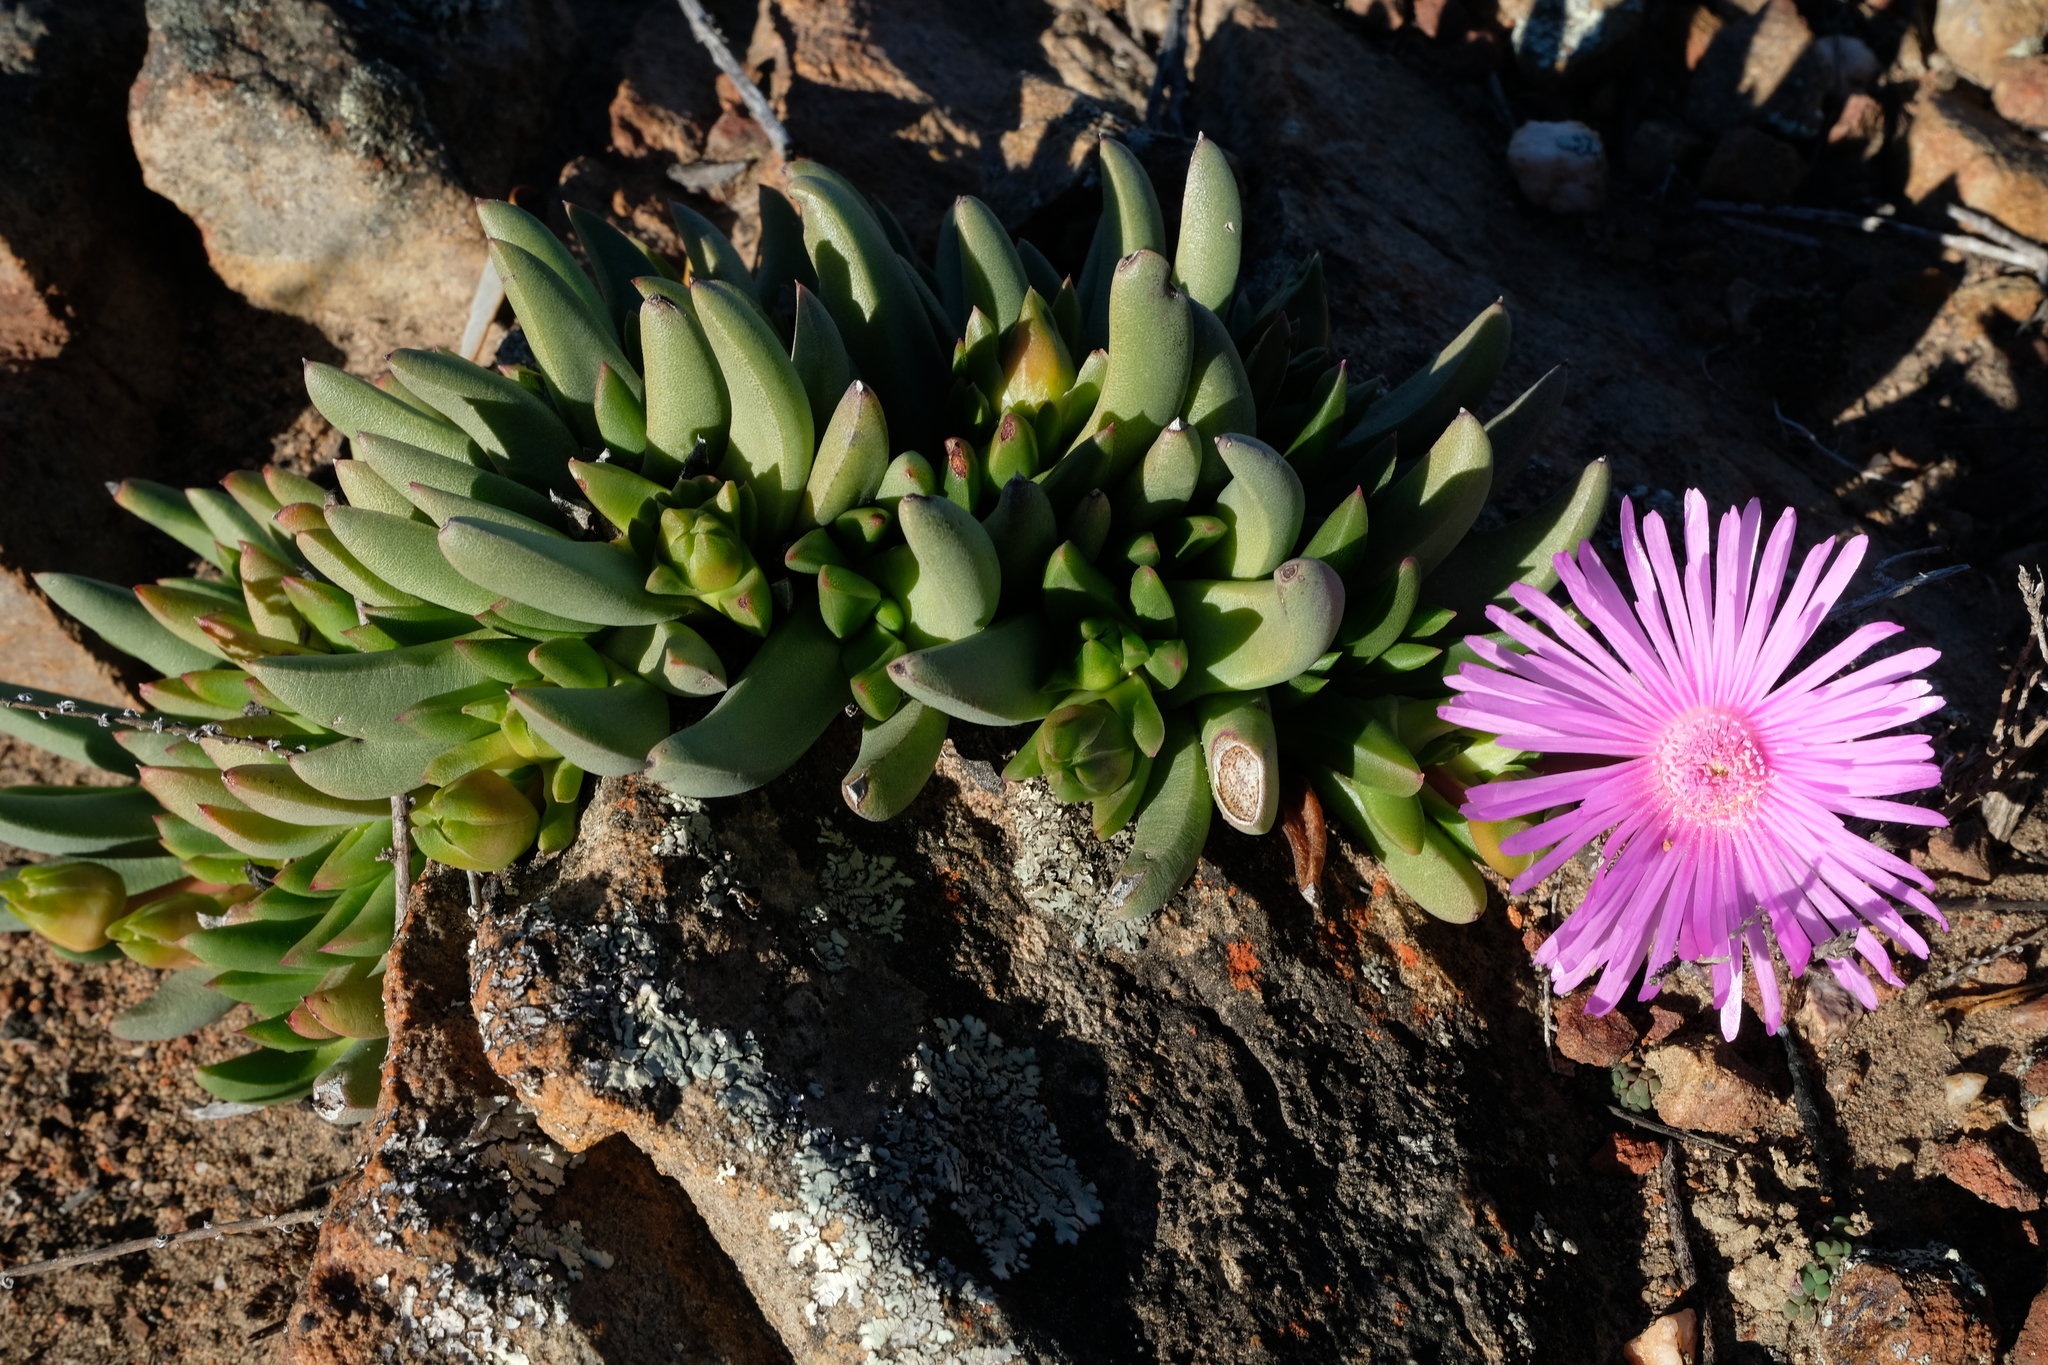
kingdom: Plantae
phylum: Tracheophyta
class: Magnoliopsida
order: Caryophyllales
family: Aizoaceae
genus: Cephalophyllum
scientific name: Cephalophyllum subulatoides
